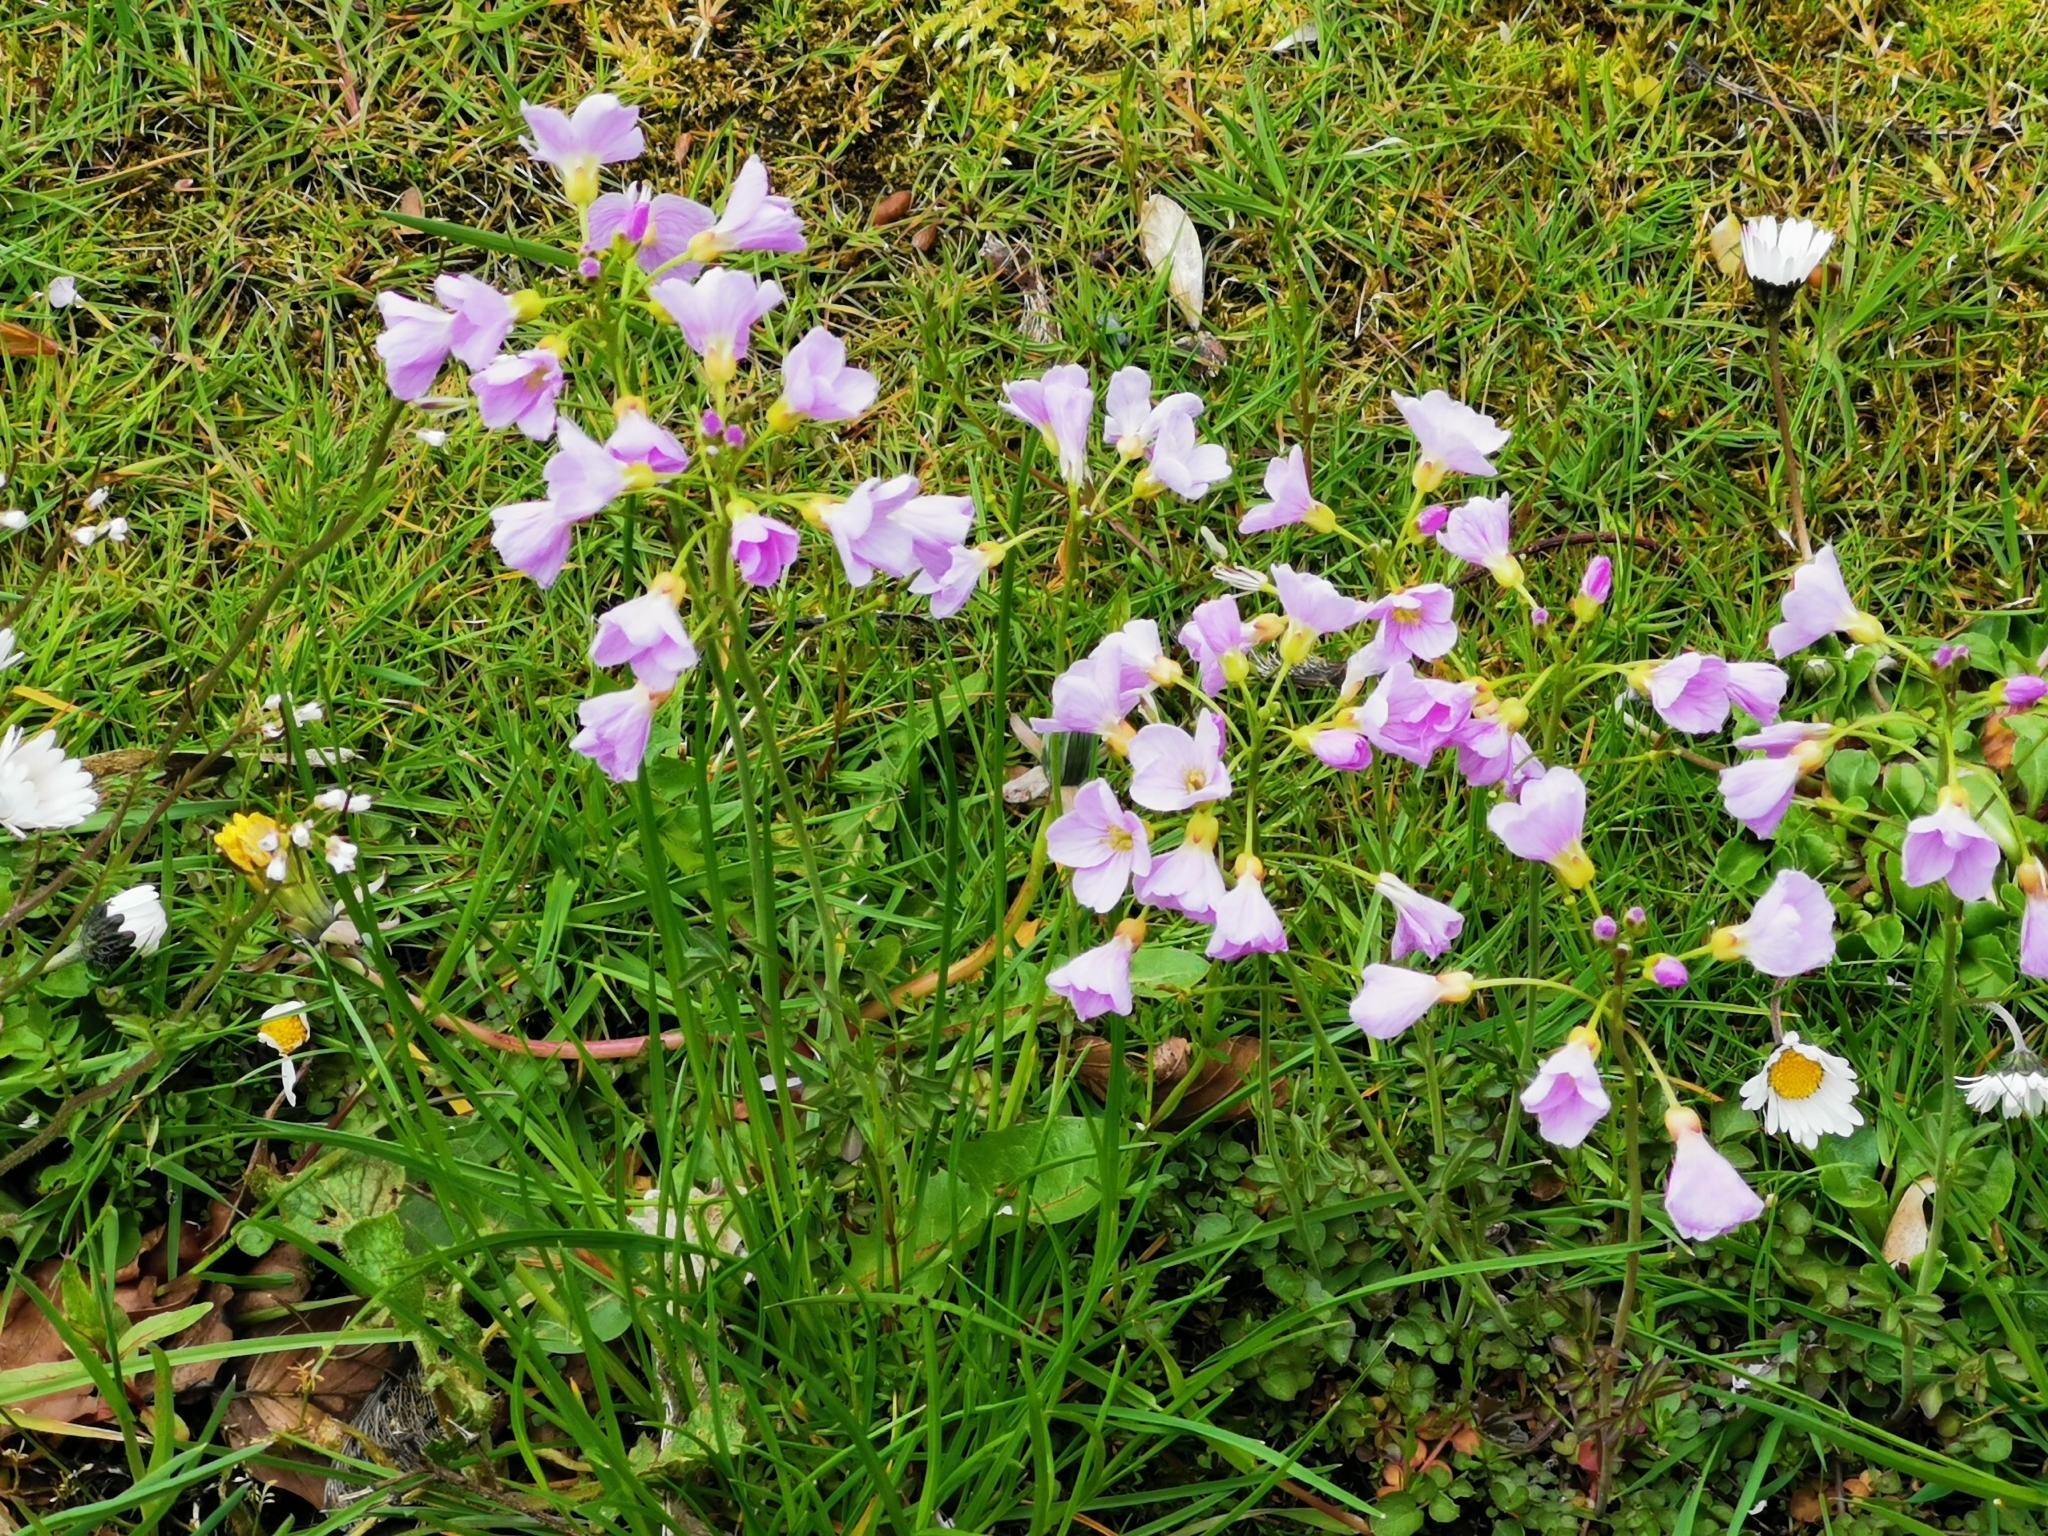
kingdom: Plantae
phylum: Tracheophyta
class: Magnoliopsida
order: Brassicales
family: Brassicaceae
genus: Cardamine
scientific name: Cardamine pratensis
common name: Cuckoo flower
